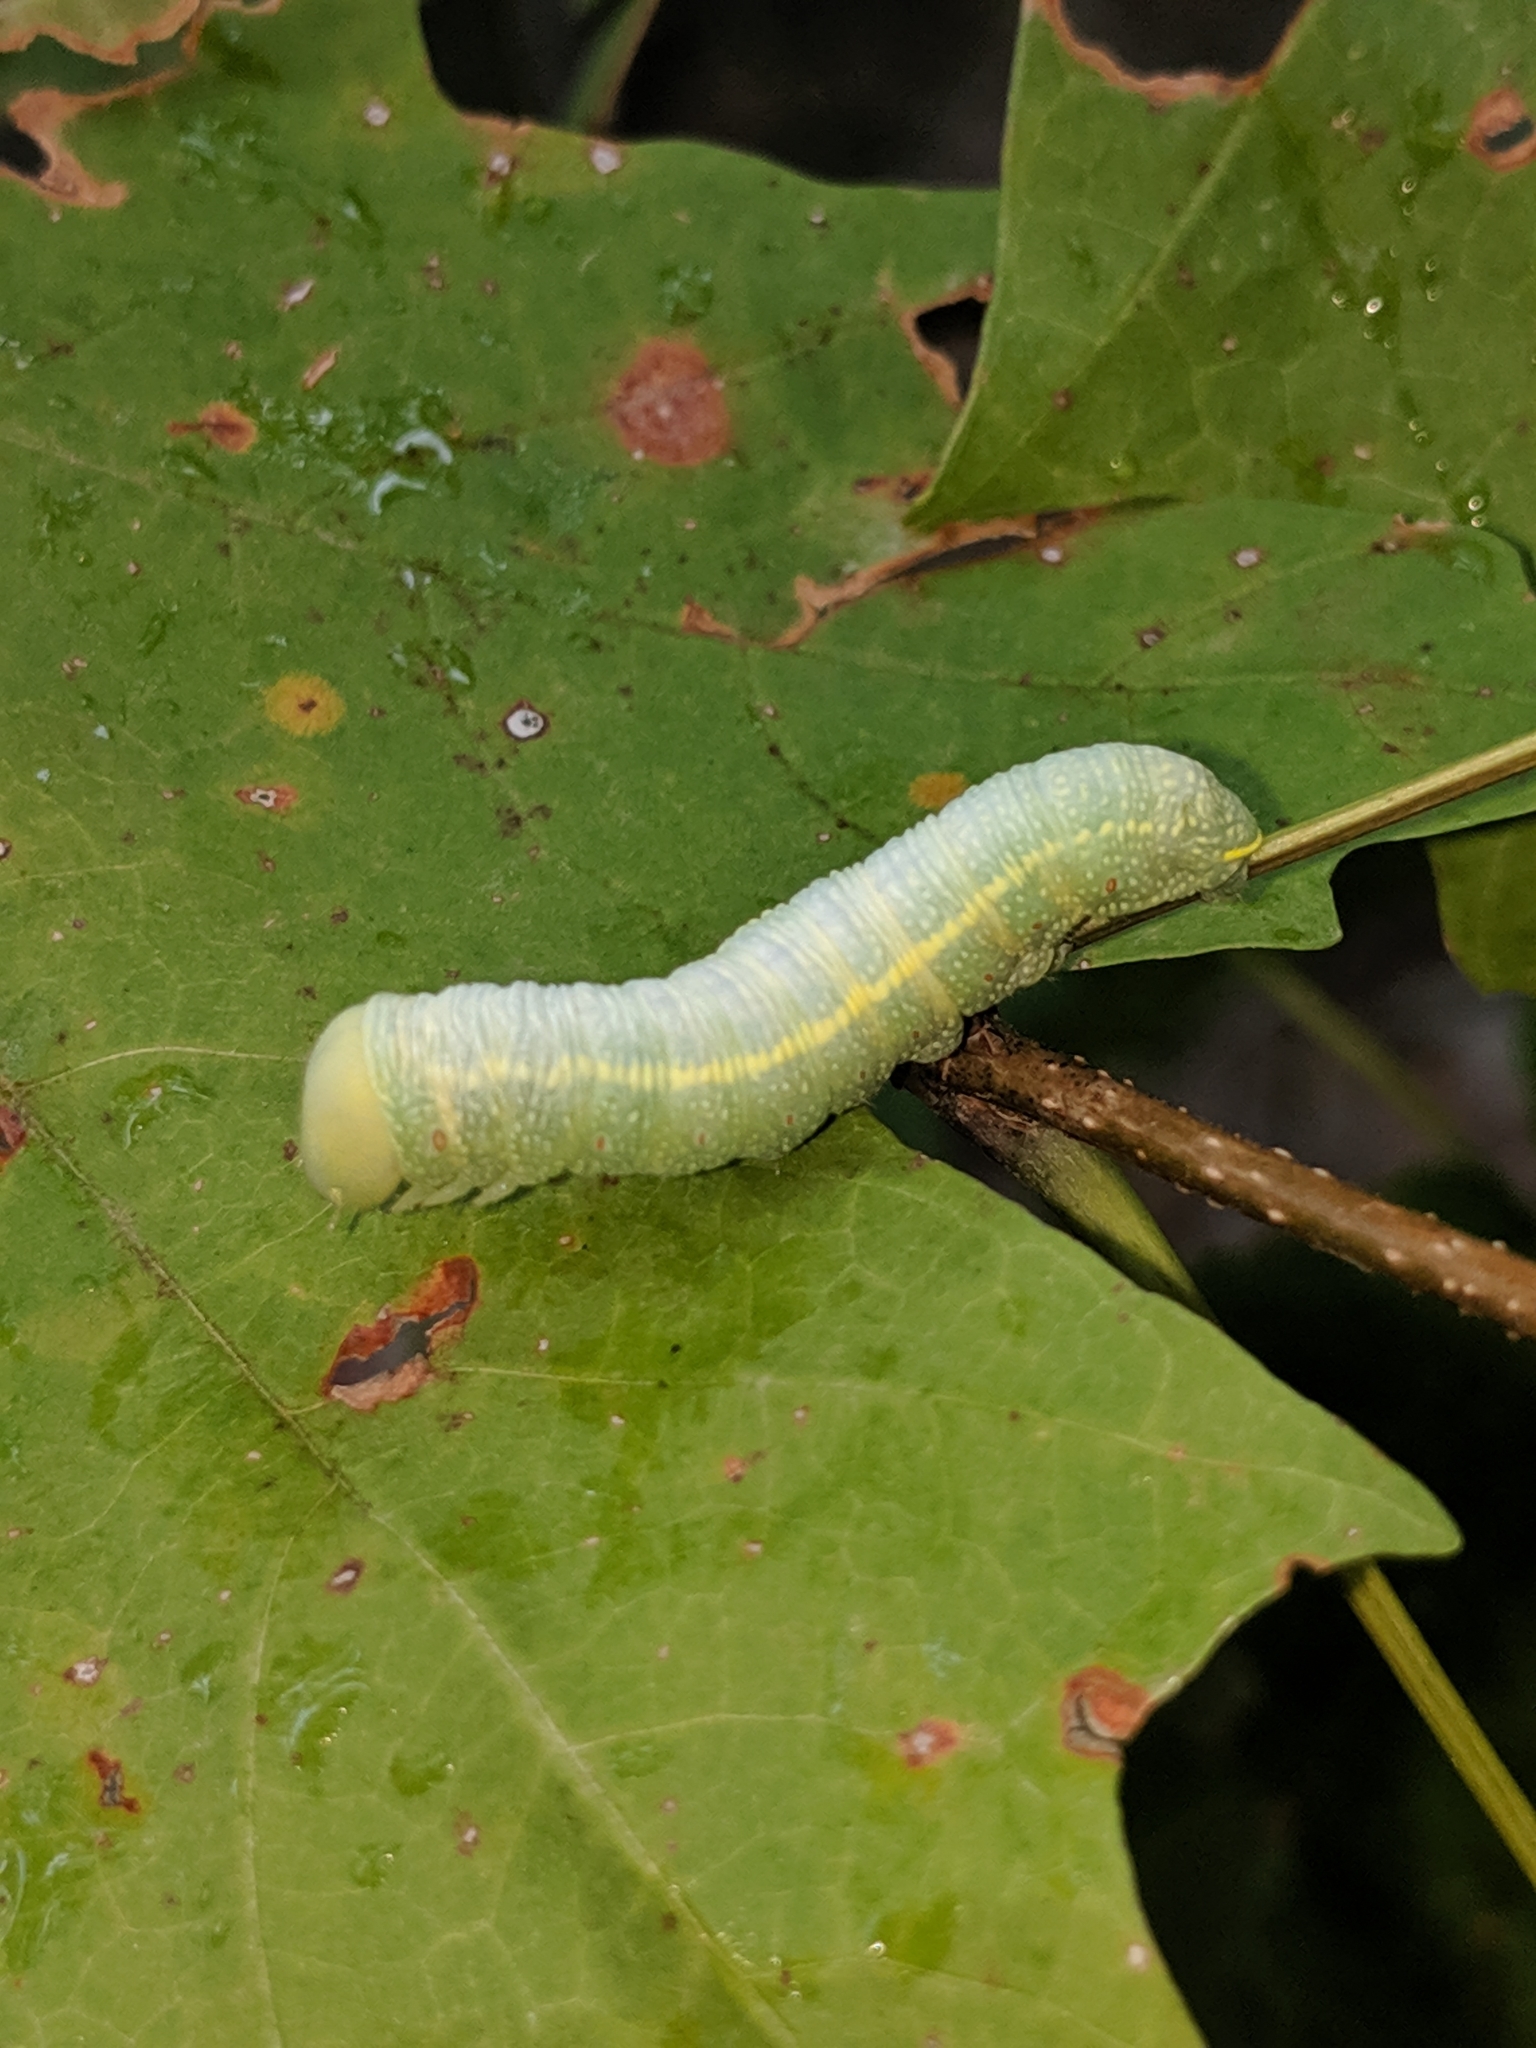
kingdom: Animalia
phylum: Arthropoda
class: Insecta
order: Lepidoptera
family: Notodontidae
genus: Nadata
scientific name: Nadata gibbosa
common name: White-dotted prominent
